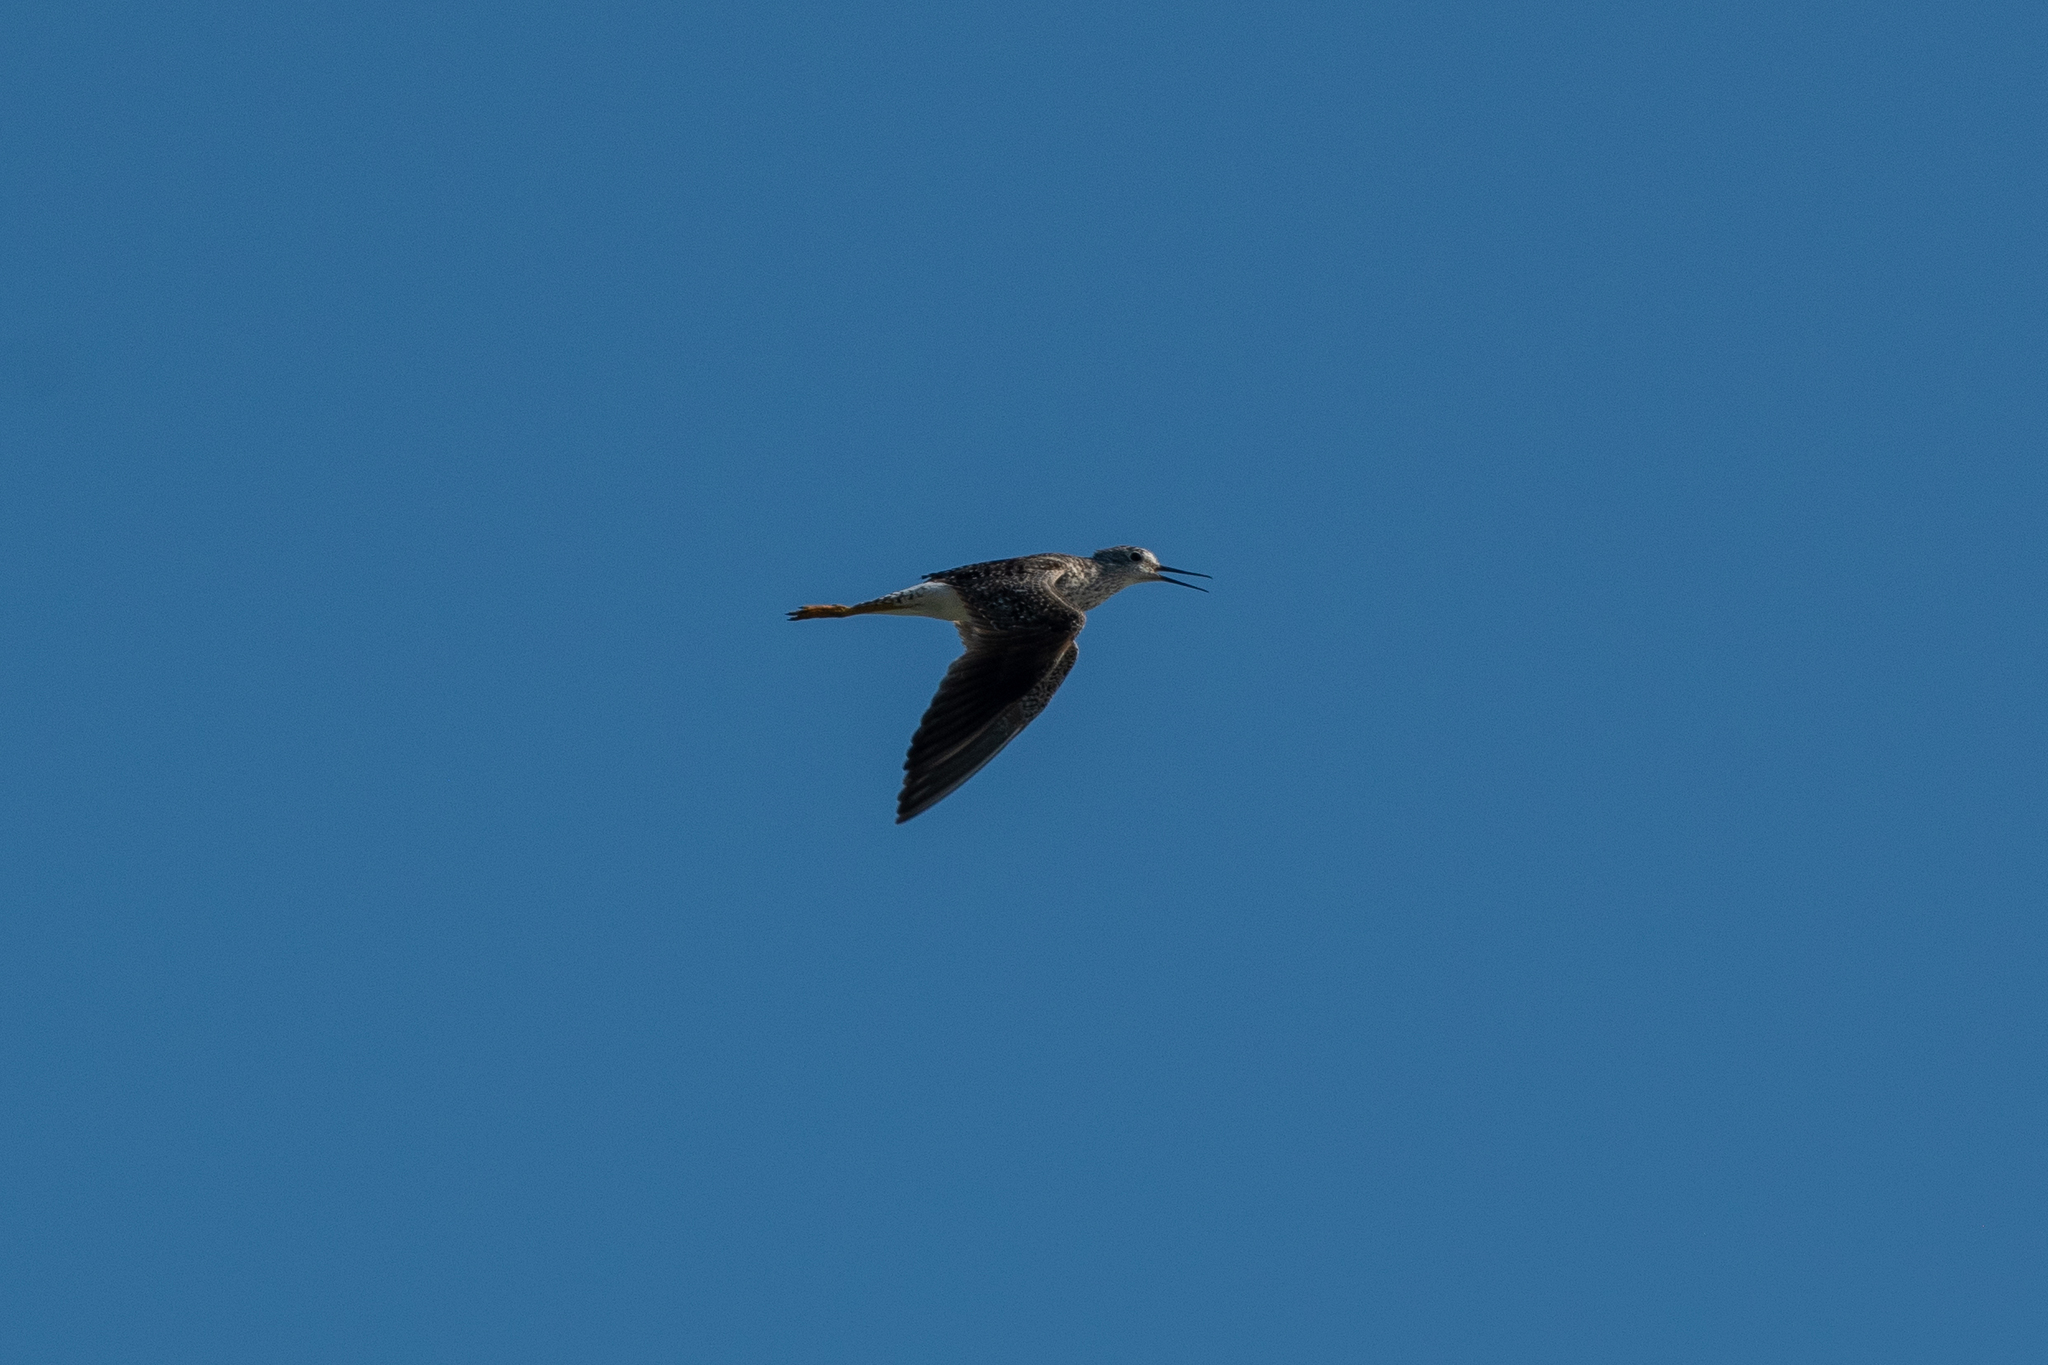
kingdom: Animalia
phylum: Chordata
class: Aves
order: Charadriiformes
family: Scolopacidae
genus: Tringa
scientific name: Tringa flavipes
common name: Lesser yellowlegs
